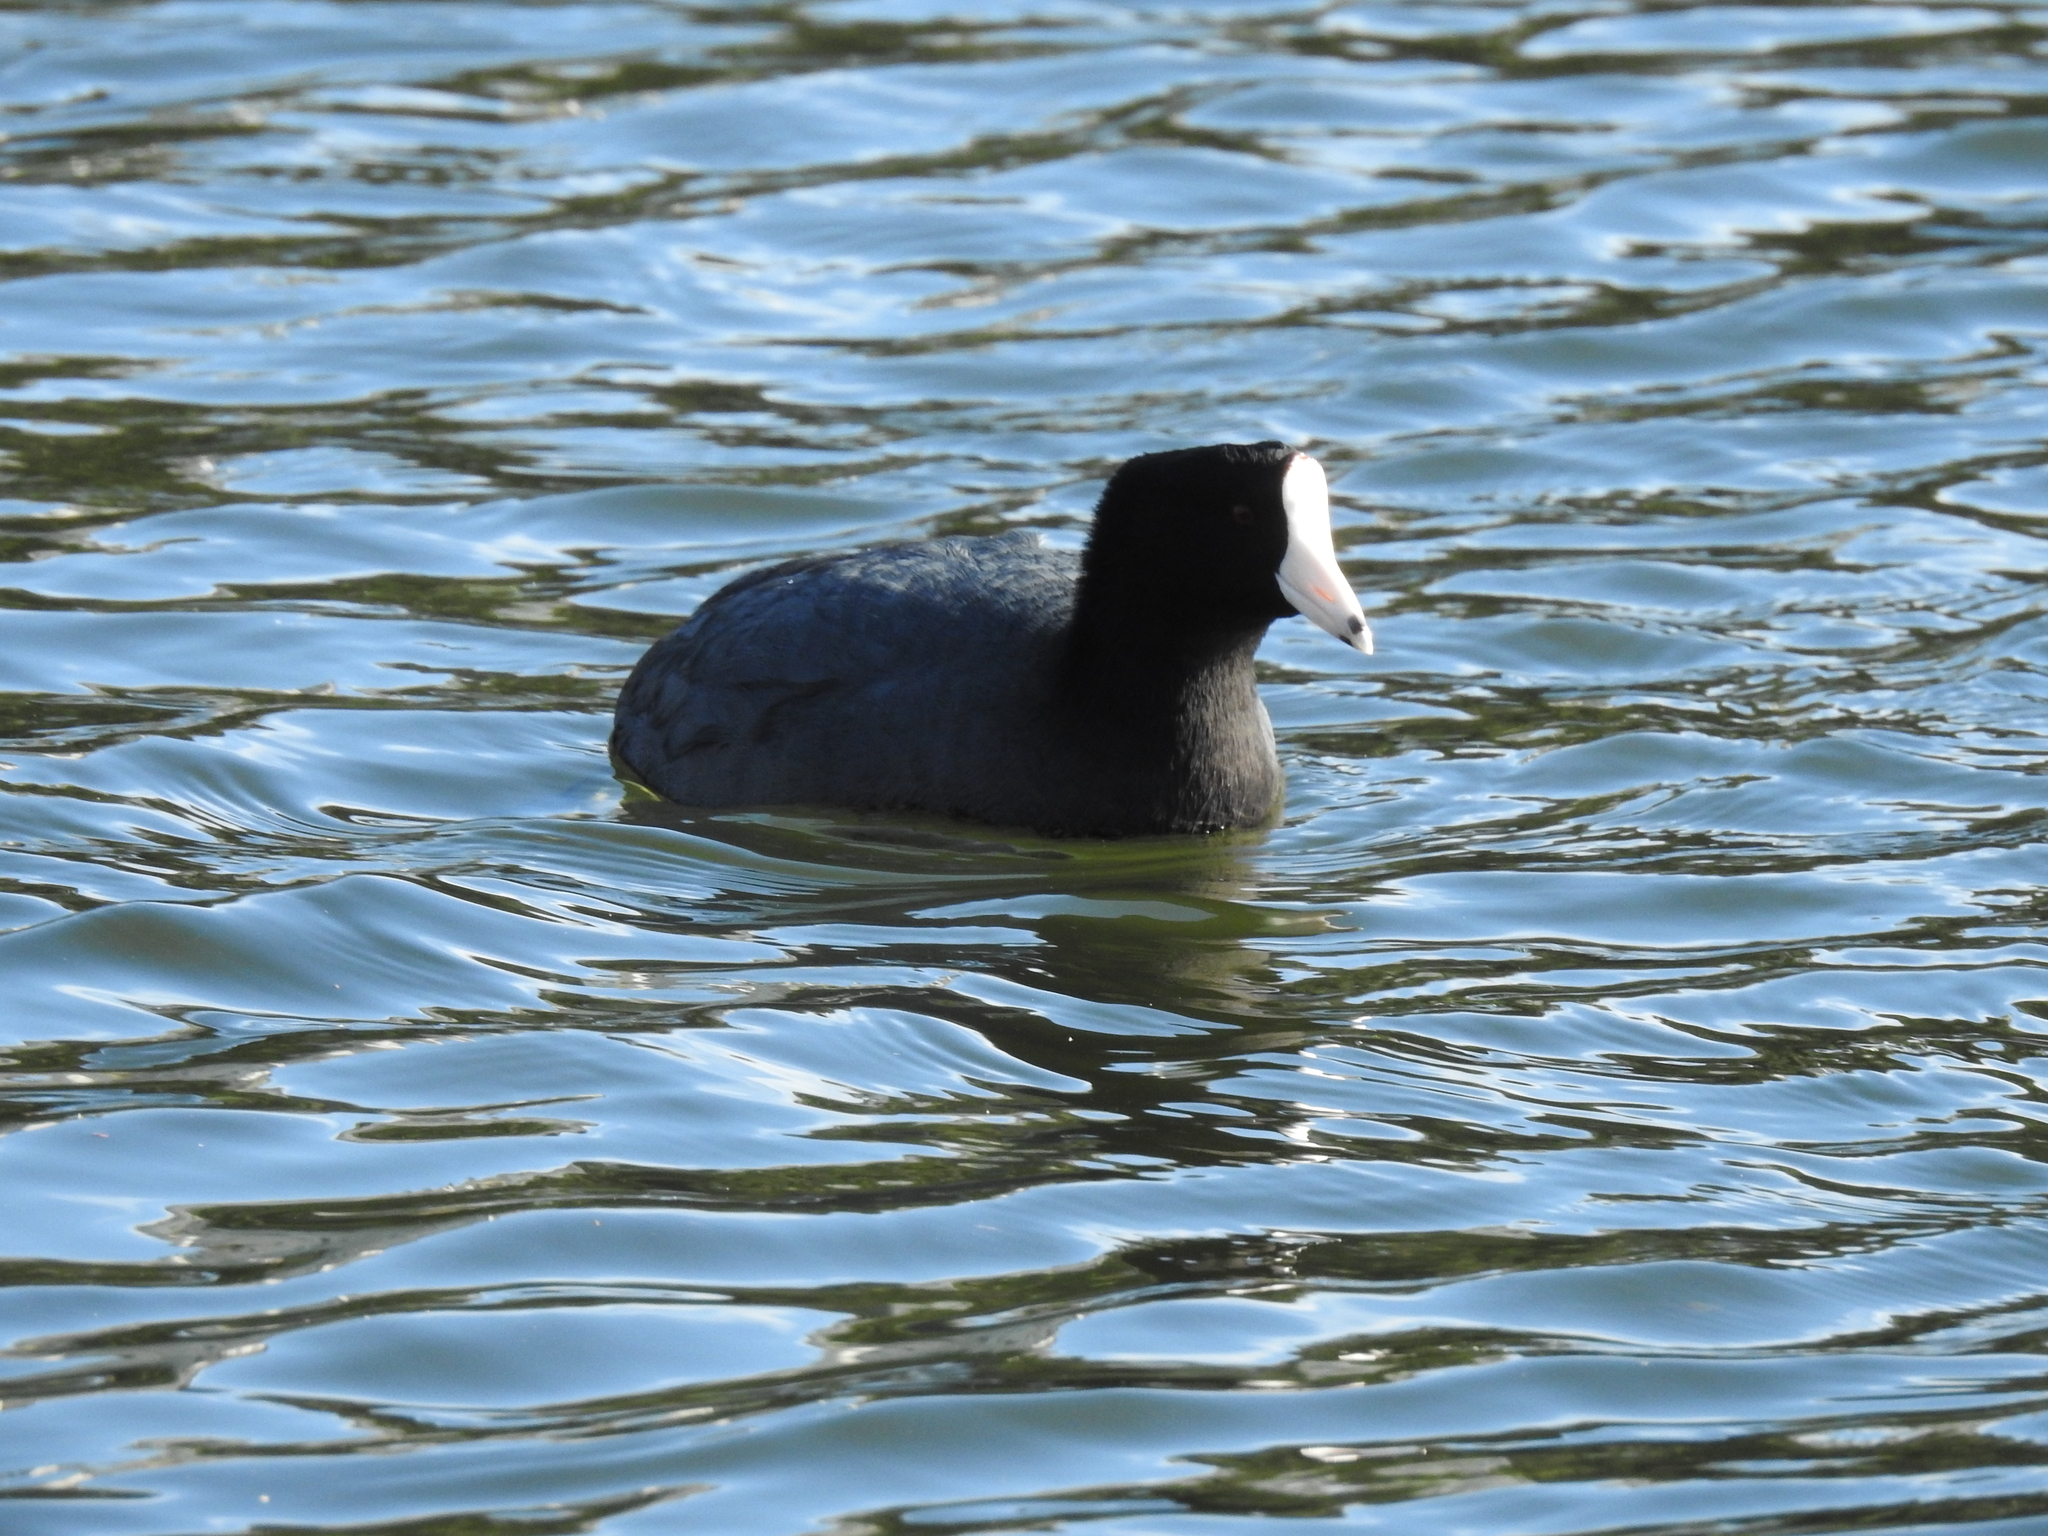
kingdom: Animalia
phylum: Chordata
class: Aves
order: Gruiformes
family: Rallidae
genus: Fulica
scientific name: Fulica americana
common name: American coot
